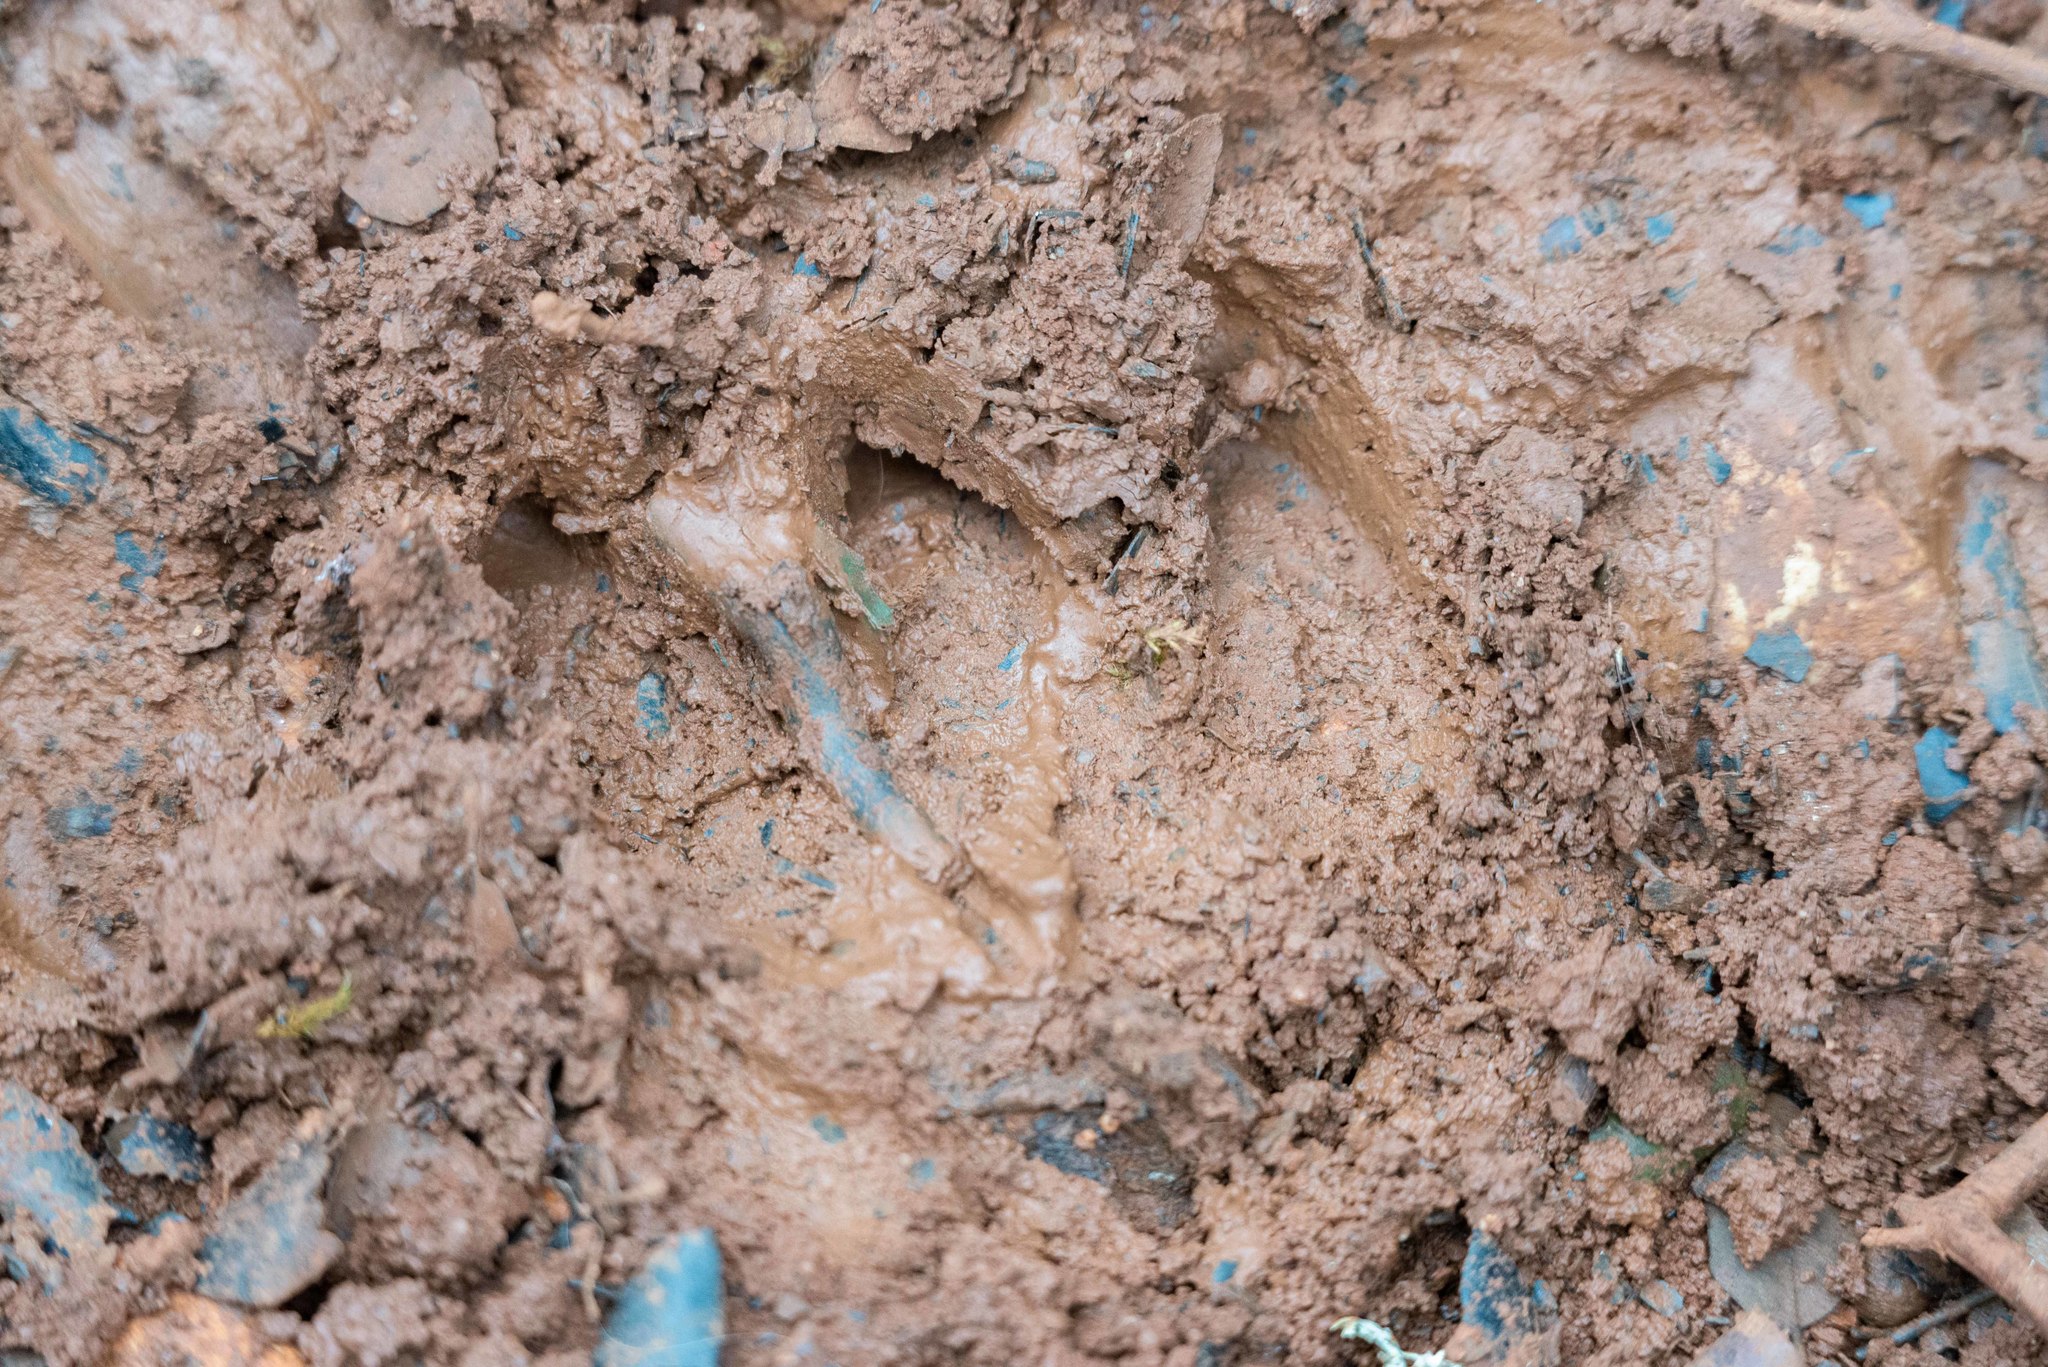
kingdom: Animalia
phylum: Chordata
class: Mammalia
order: Artiodactyla
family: Suidae
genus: Sus
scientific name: Sus scrofa
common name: Wild boar
